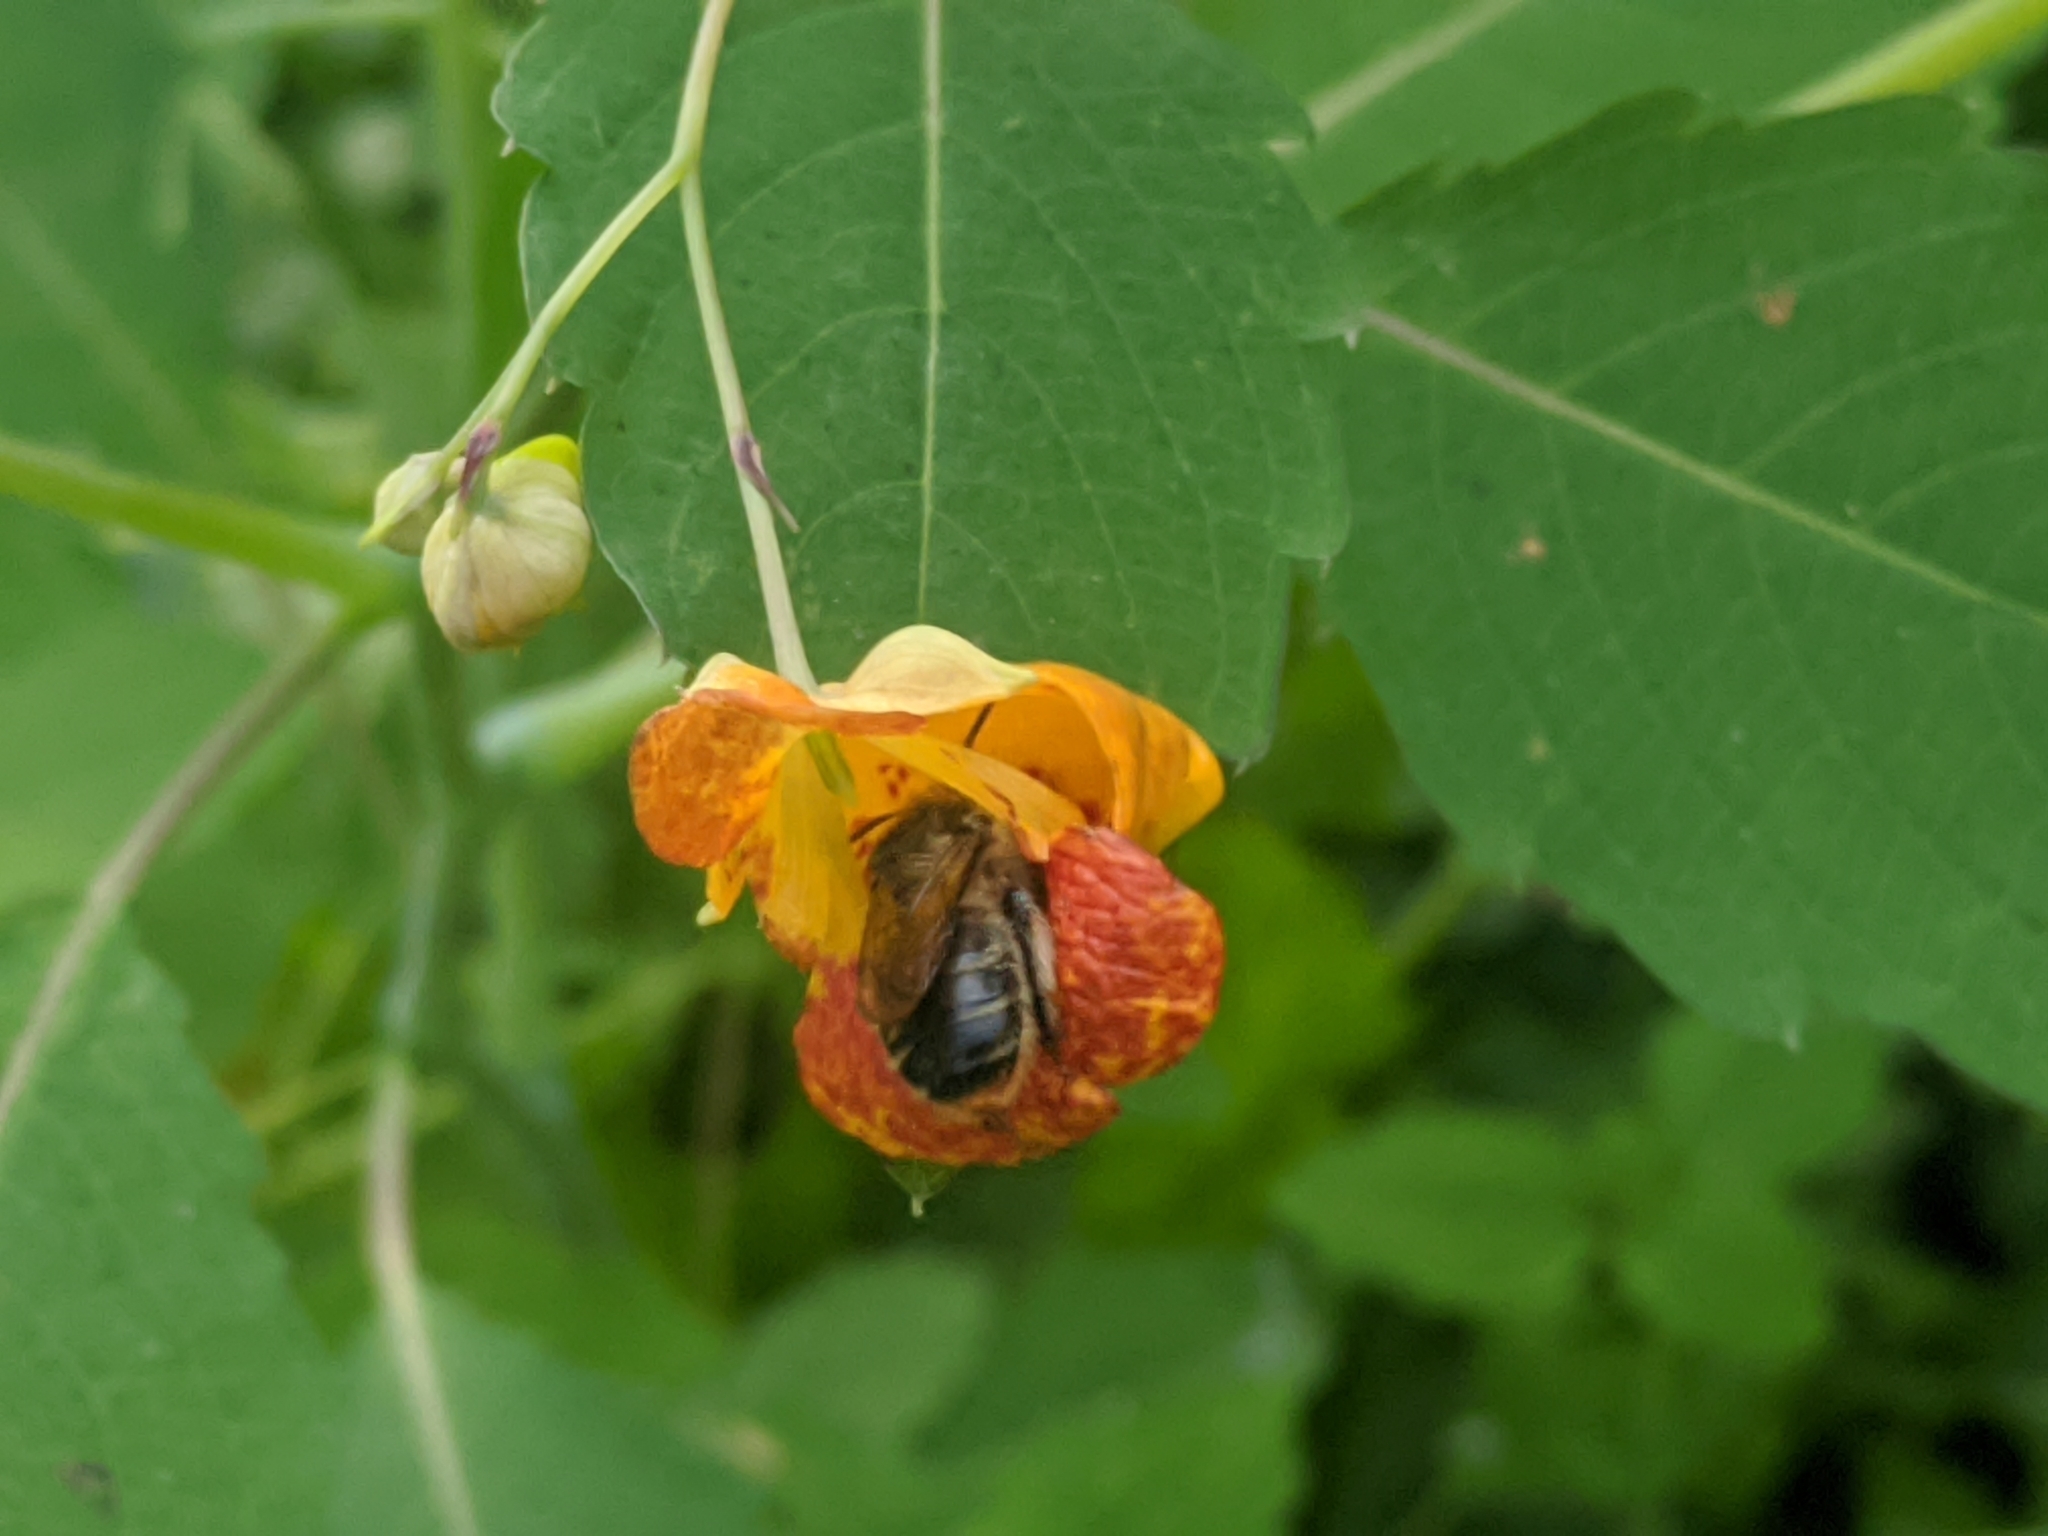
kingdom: Animalia
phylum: Arthropoda
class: Insecta
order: Hymenoptera
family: Apidae
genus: Anthophora
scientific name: Anthophora terminalis
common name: Orange-tipped wood-digger bee
